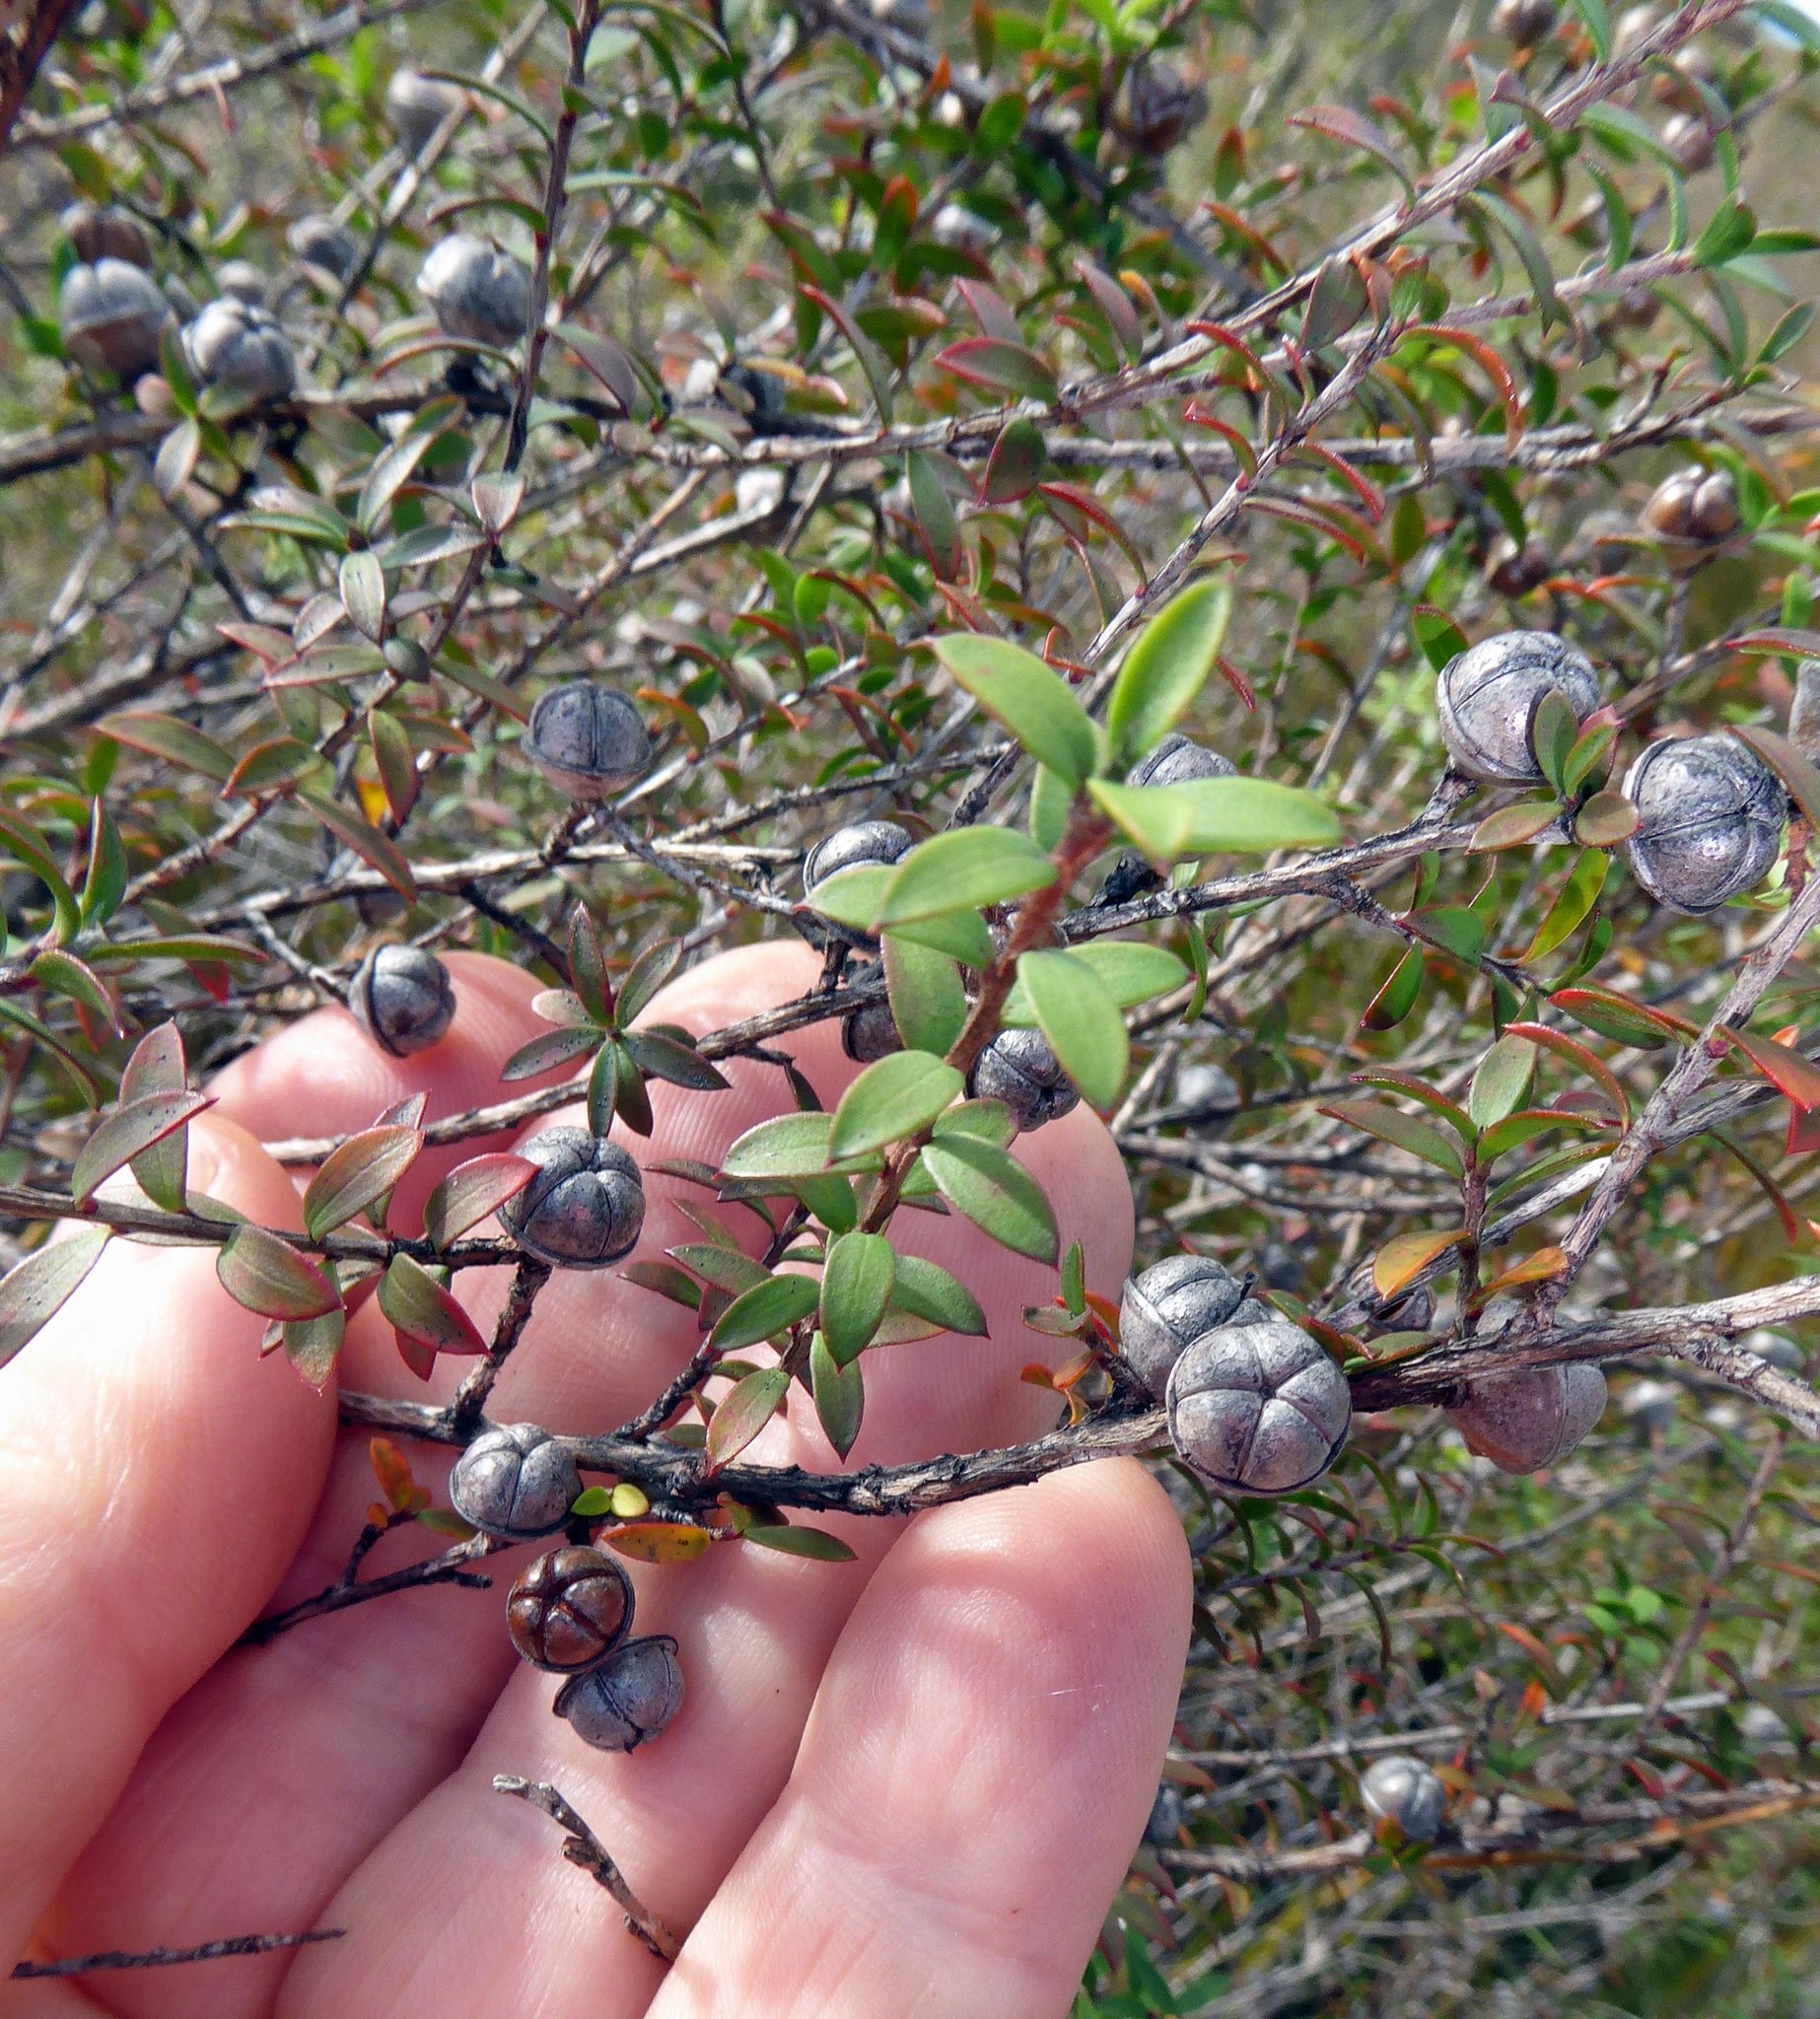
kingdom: Plantae
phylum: Tracheophyta
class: Magnoliopsida
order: Myrtales
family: Myrtaceae
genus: Leptospermum
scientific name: Leptospermum scoparium
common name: Broom tea-tree
